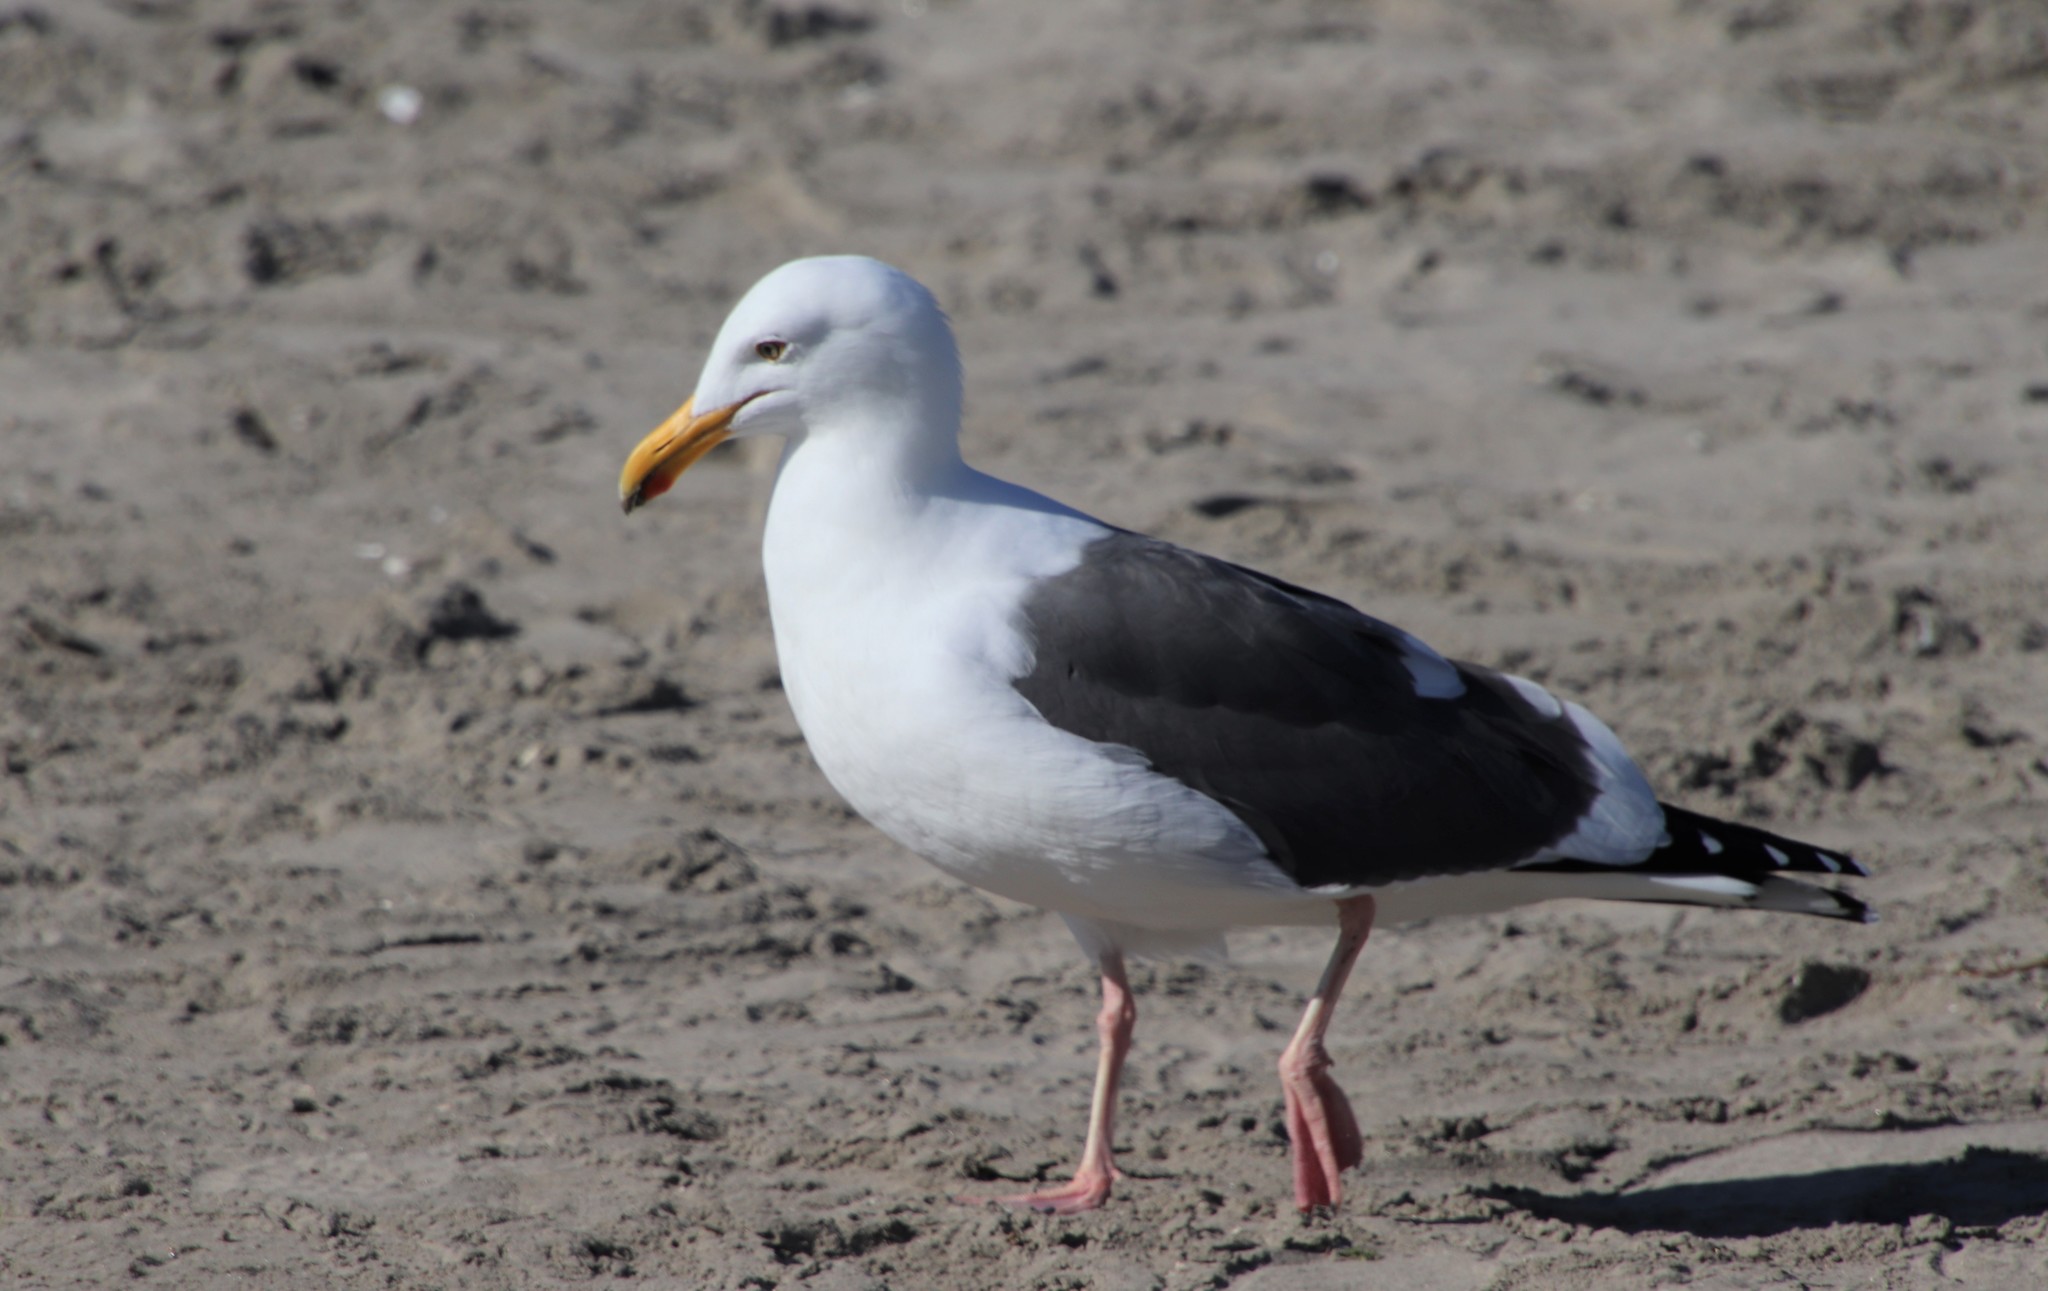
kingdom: Animalia
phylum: Chordata
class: Aves
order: Charadriiformes
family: Laridae
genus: Larus
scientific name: Larus occidentalis
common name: Western gull
